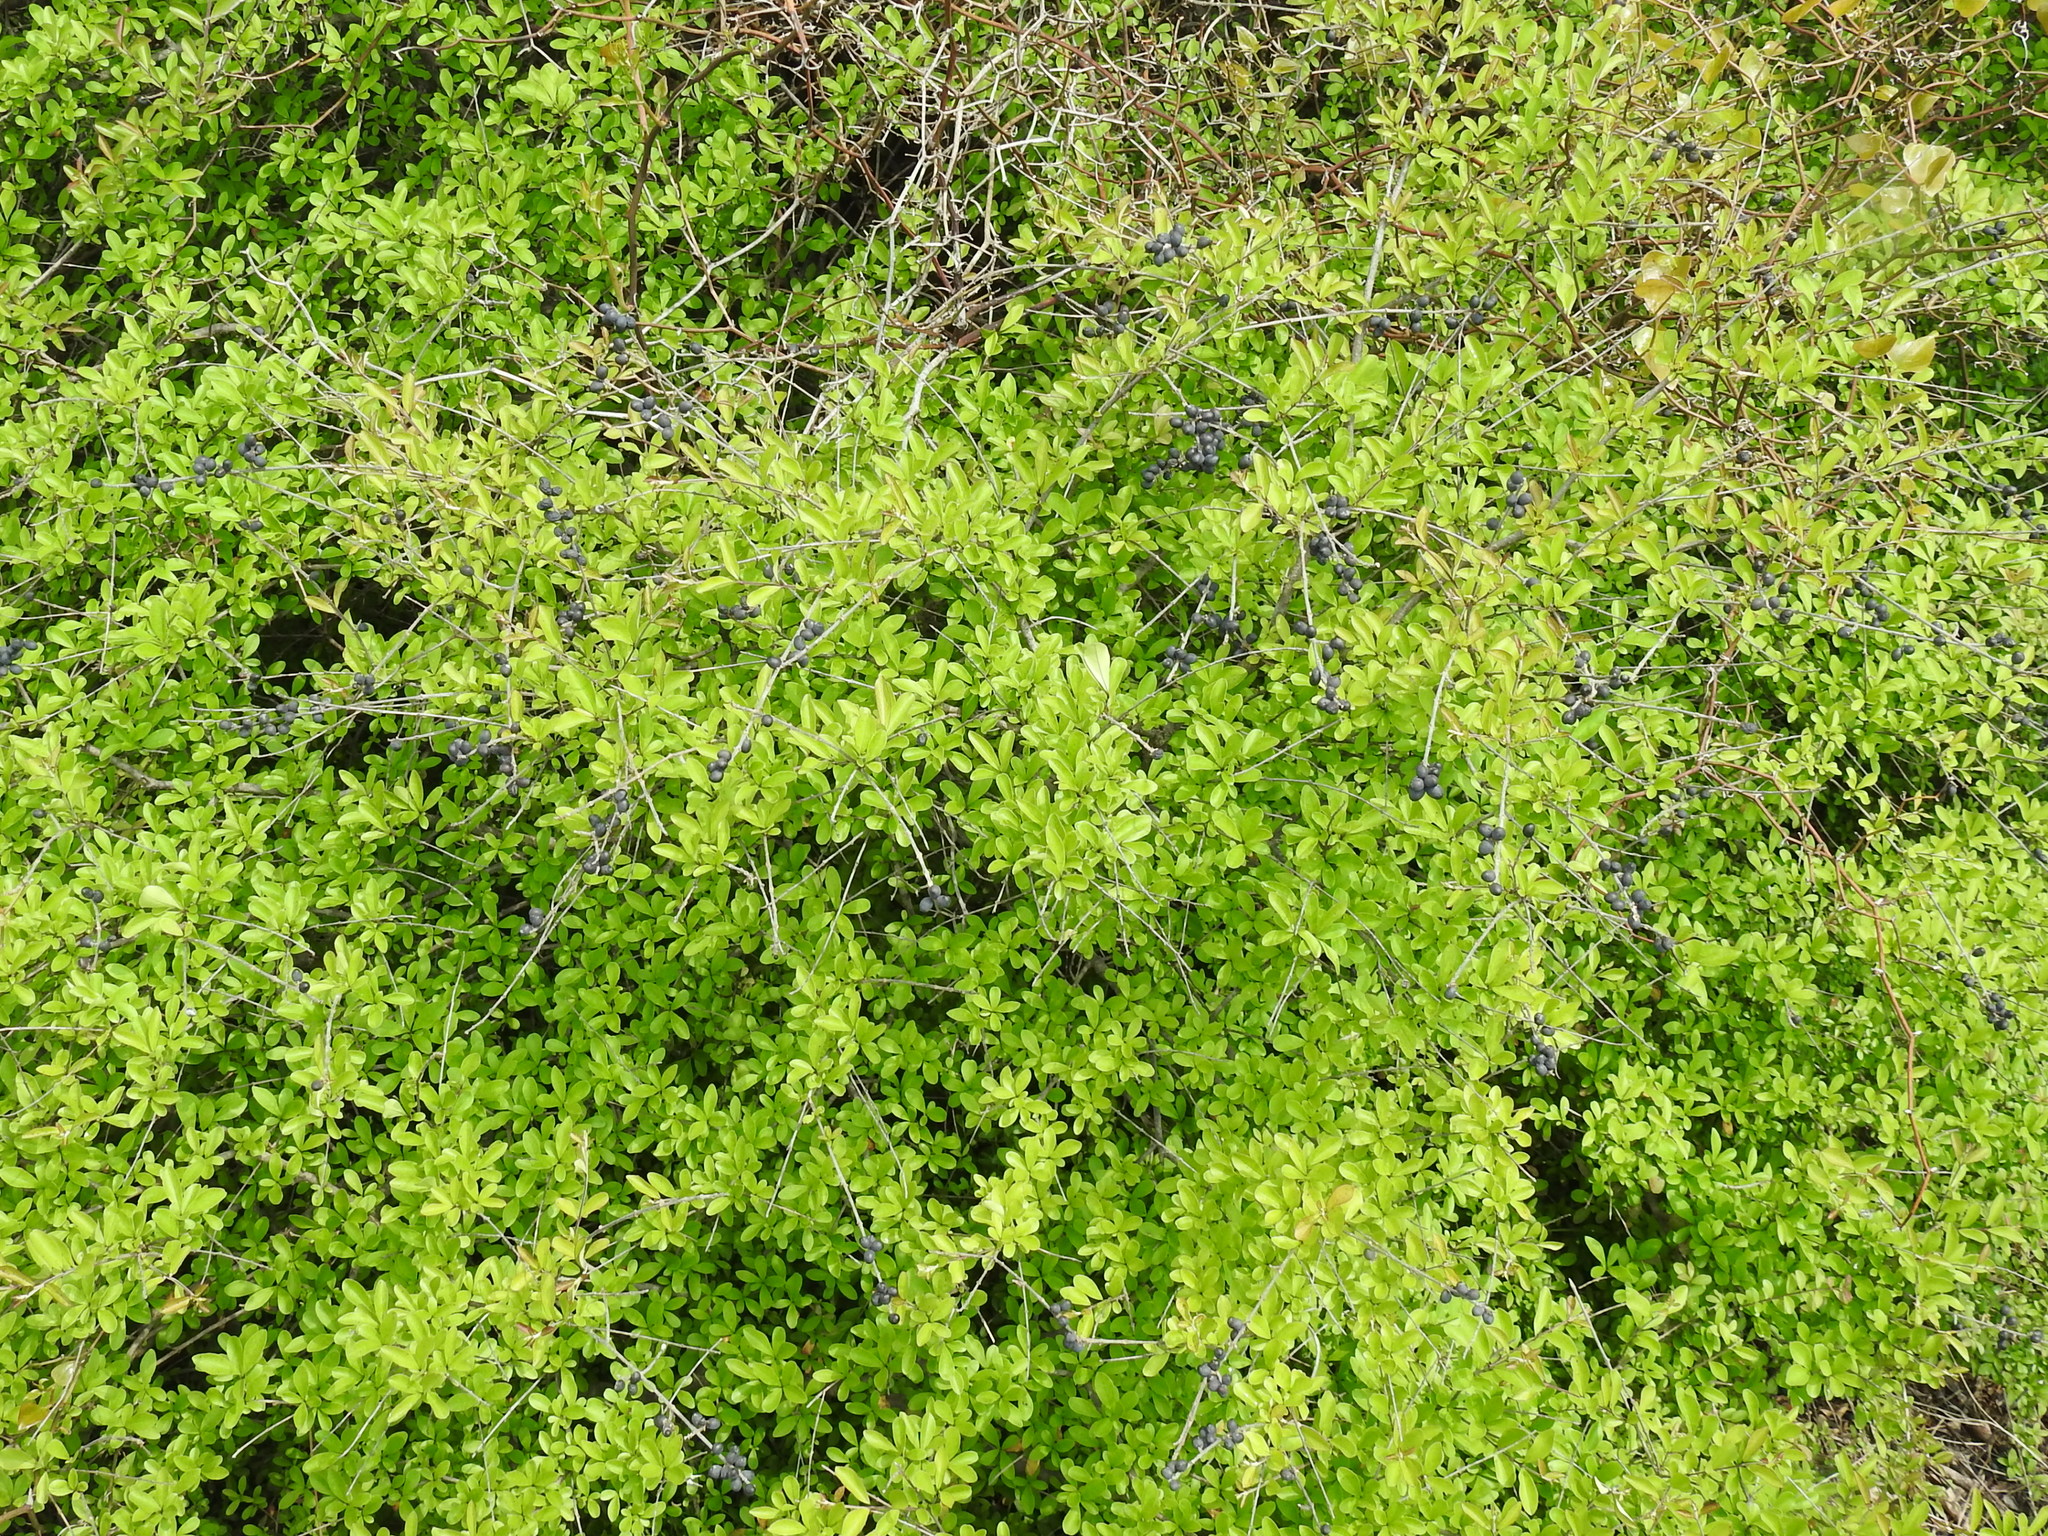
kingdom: Plantae
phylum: Tracheophyta
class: Magnoliopsida
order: Lamiales
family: Oleaceae
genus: Ligustrum
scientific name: Ligustrum quihoui
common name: Waxyleaf privet
